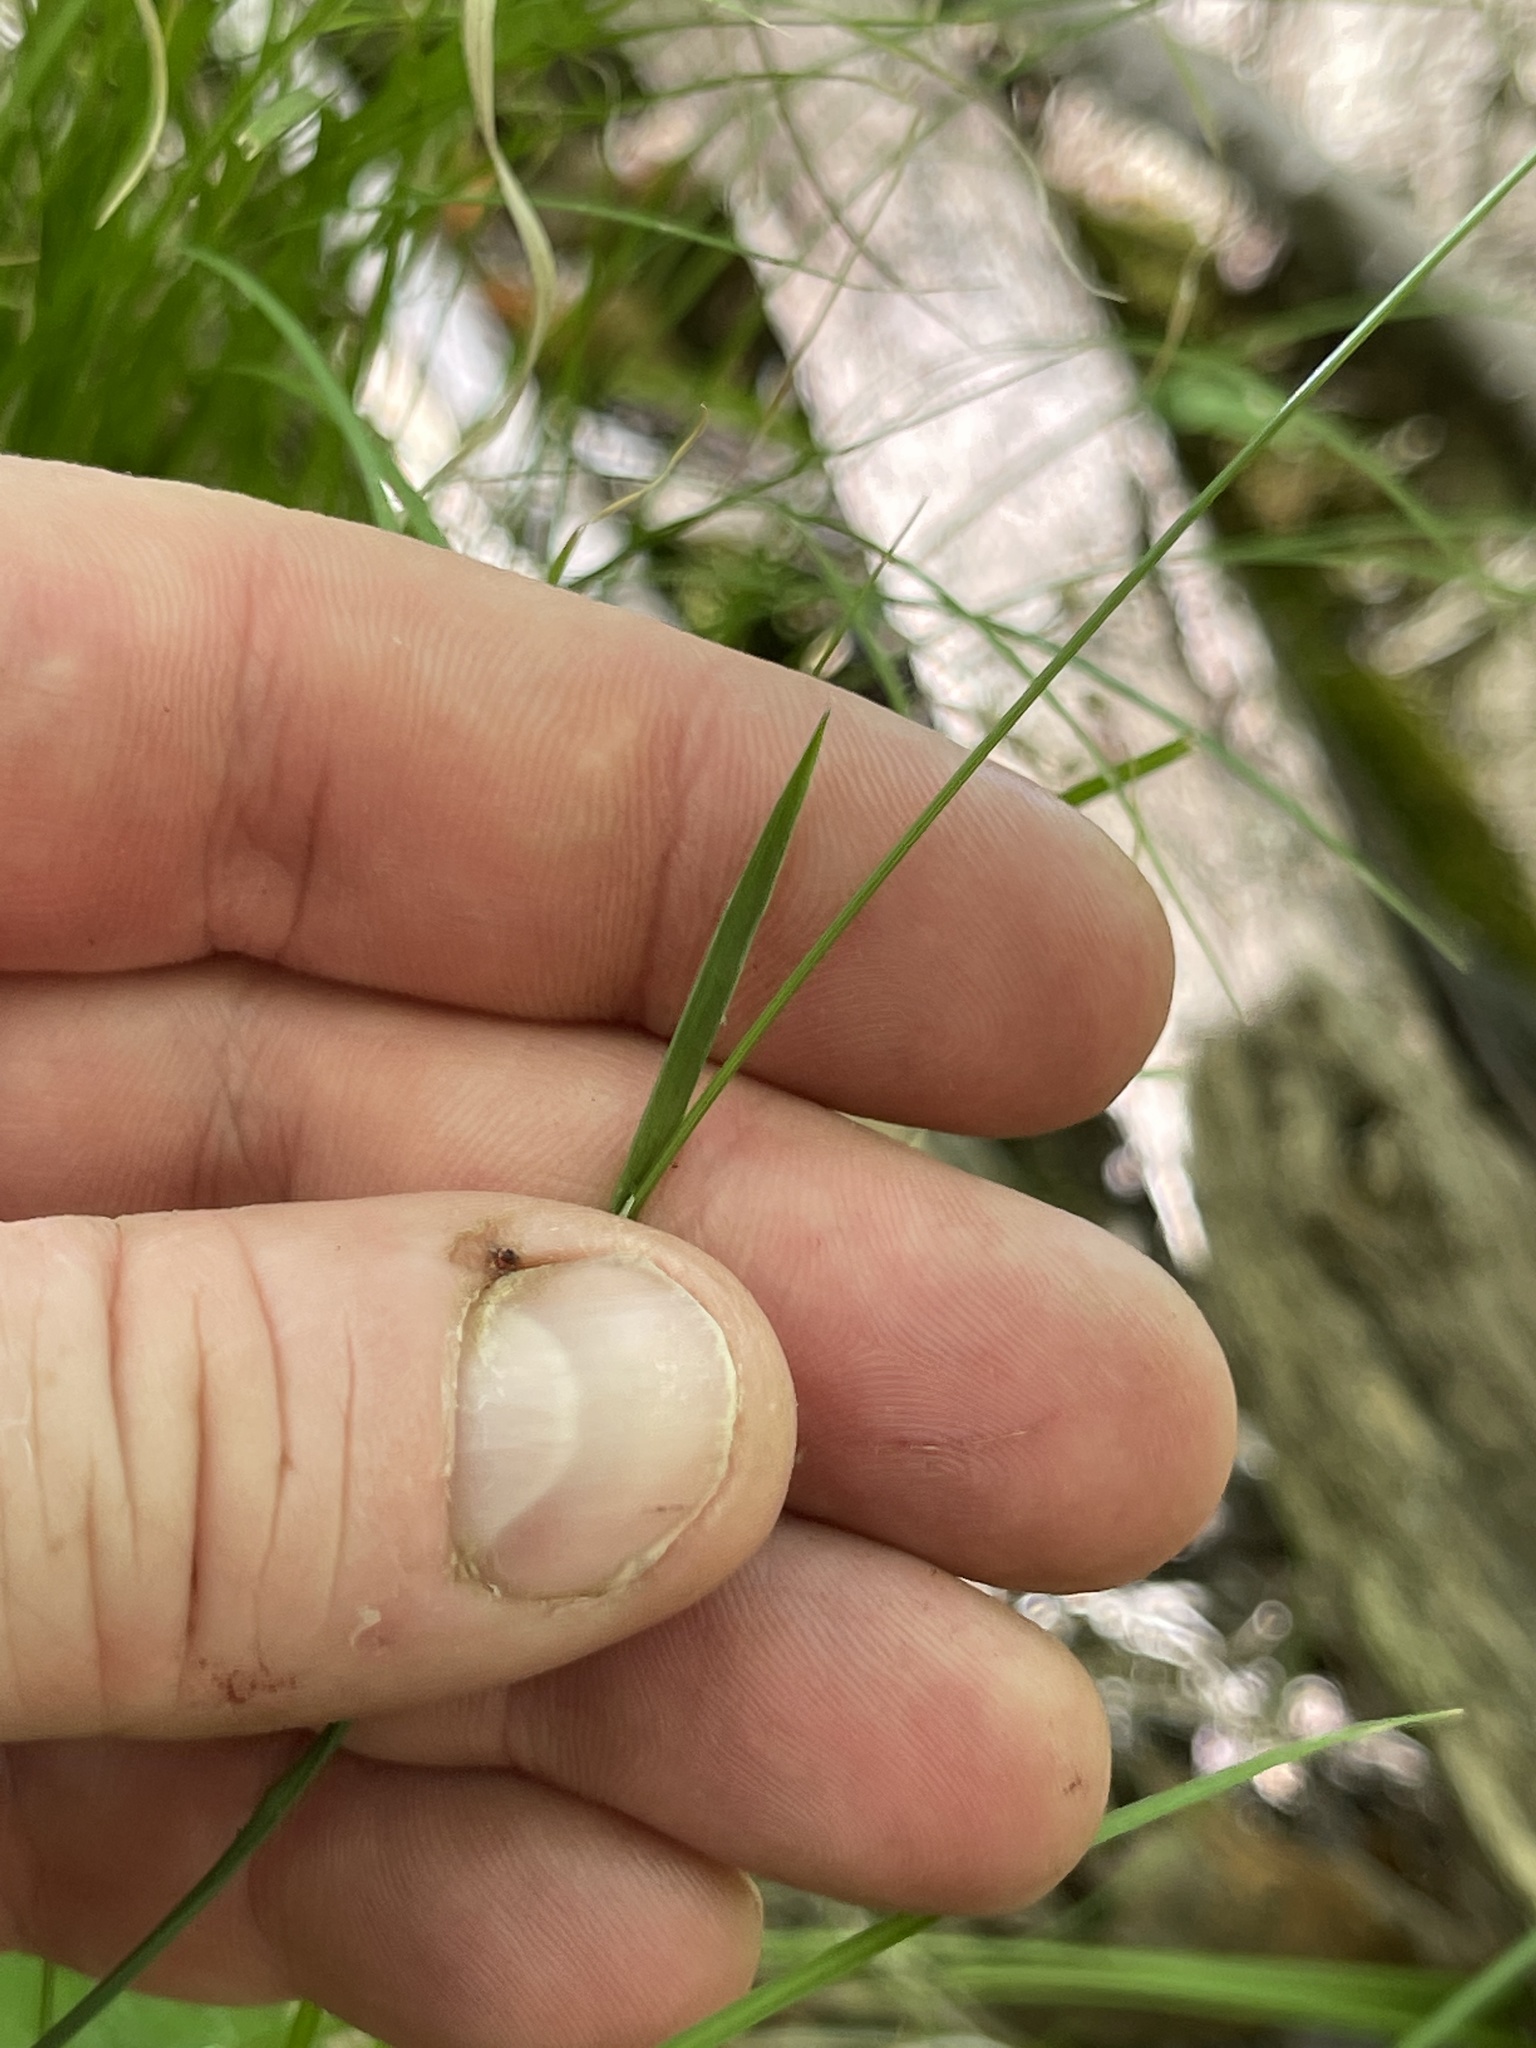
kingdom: Plantae
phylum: Tracheophyta
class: Liliopsida
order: Poales
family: Poaceae
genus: Poa
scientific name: Poa saltuensis
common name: Bushy pasture speargrass
